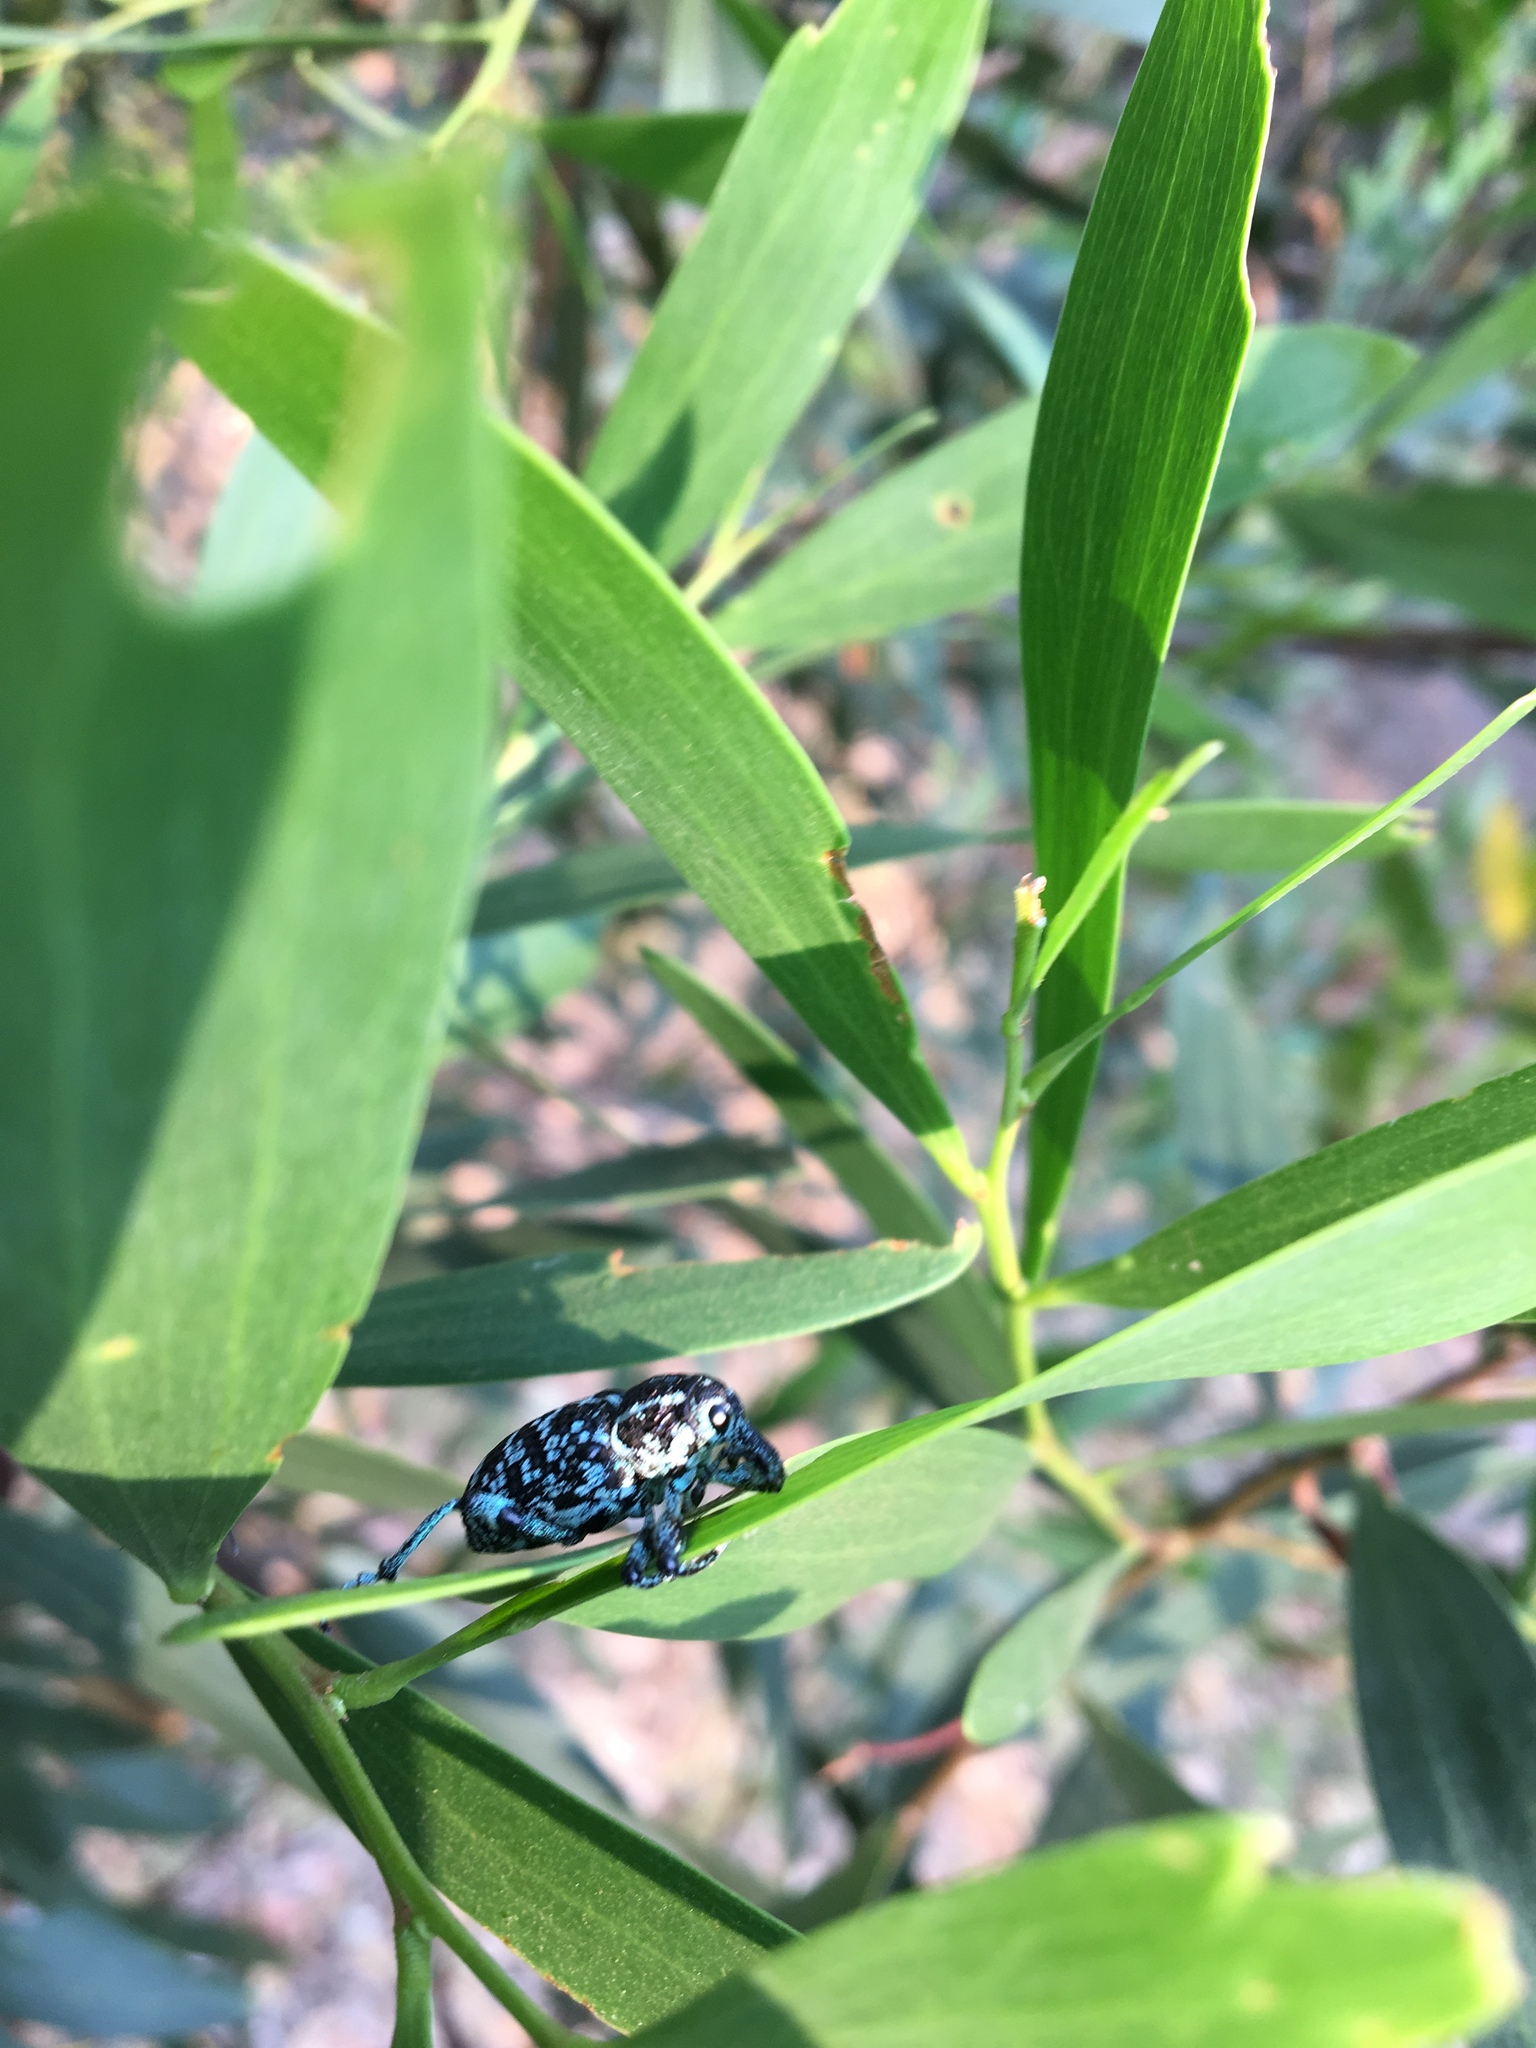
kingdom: Animalia
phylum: Arthropoda
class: Insecta
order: Coleoptera
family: Curculionidae
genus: Chrysolopus
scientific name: Chrysolopus spectabilis
